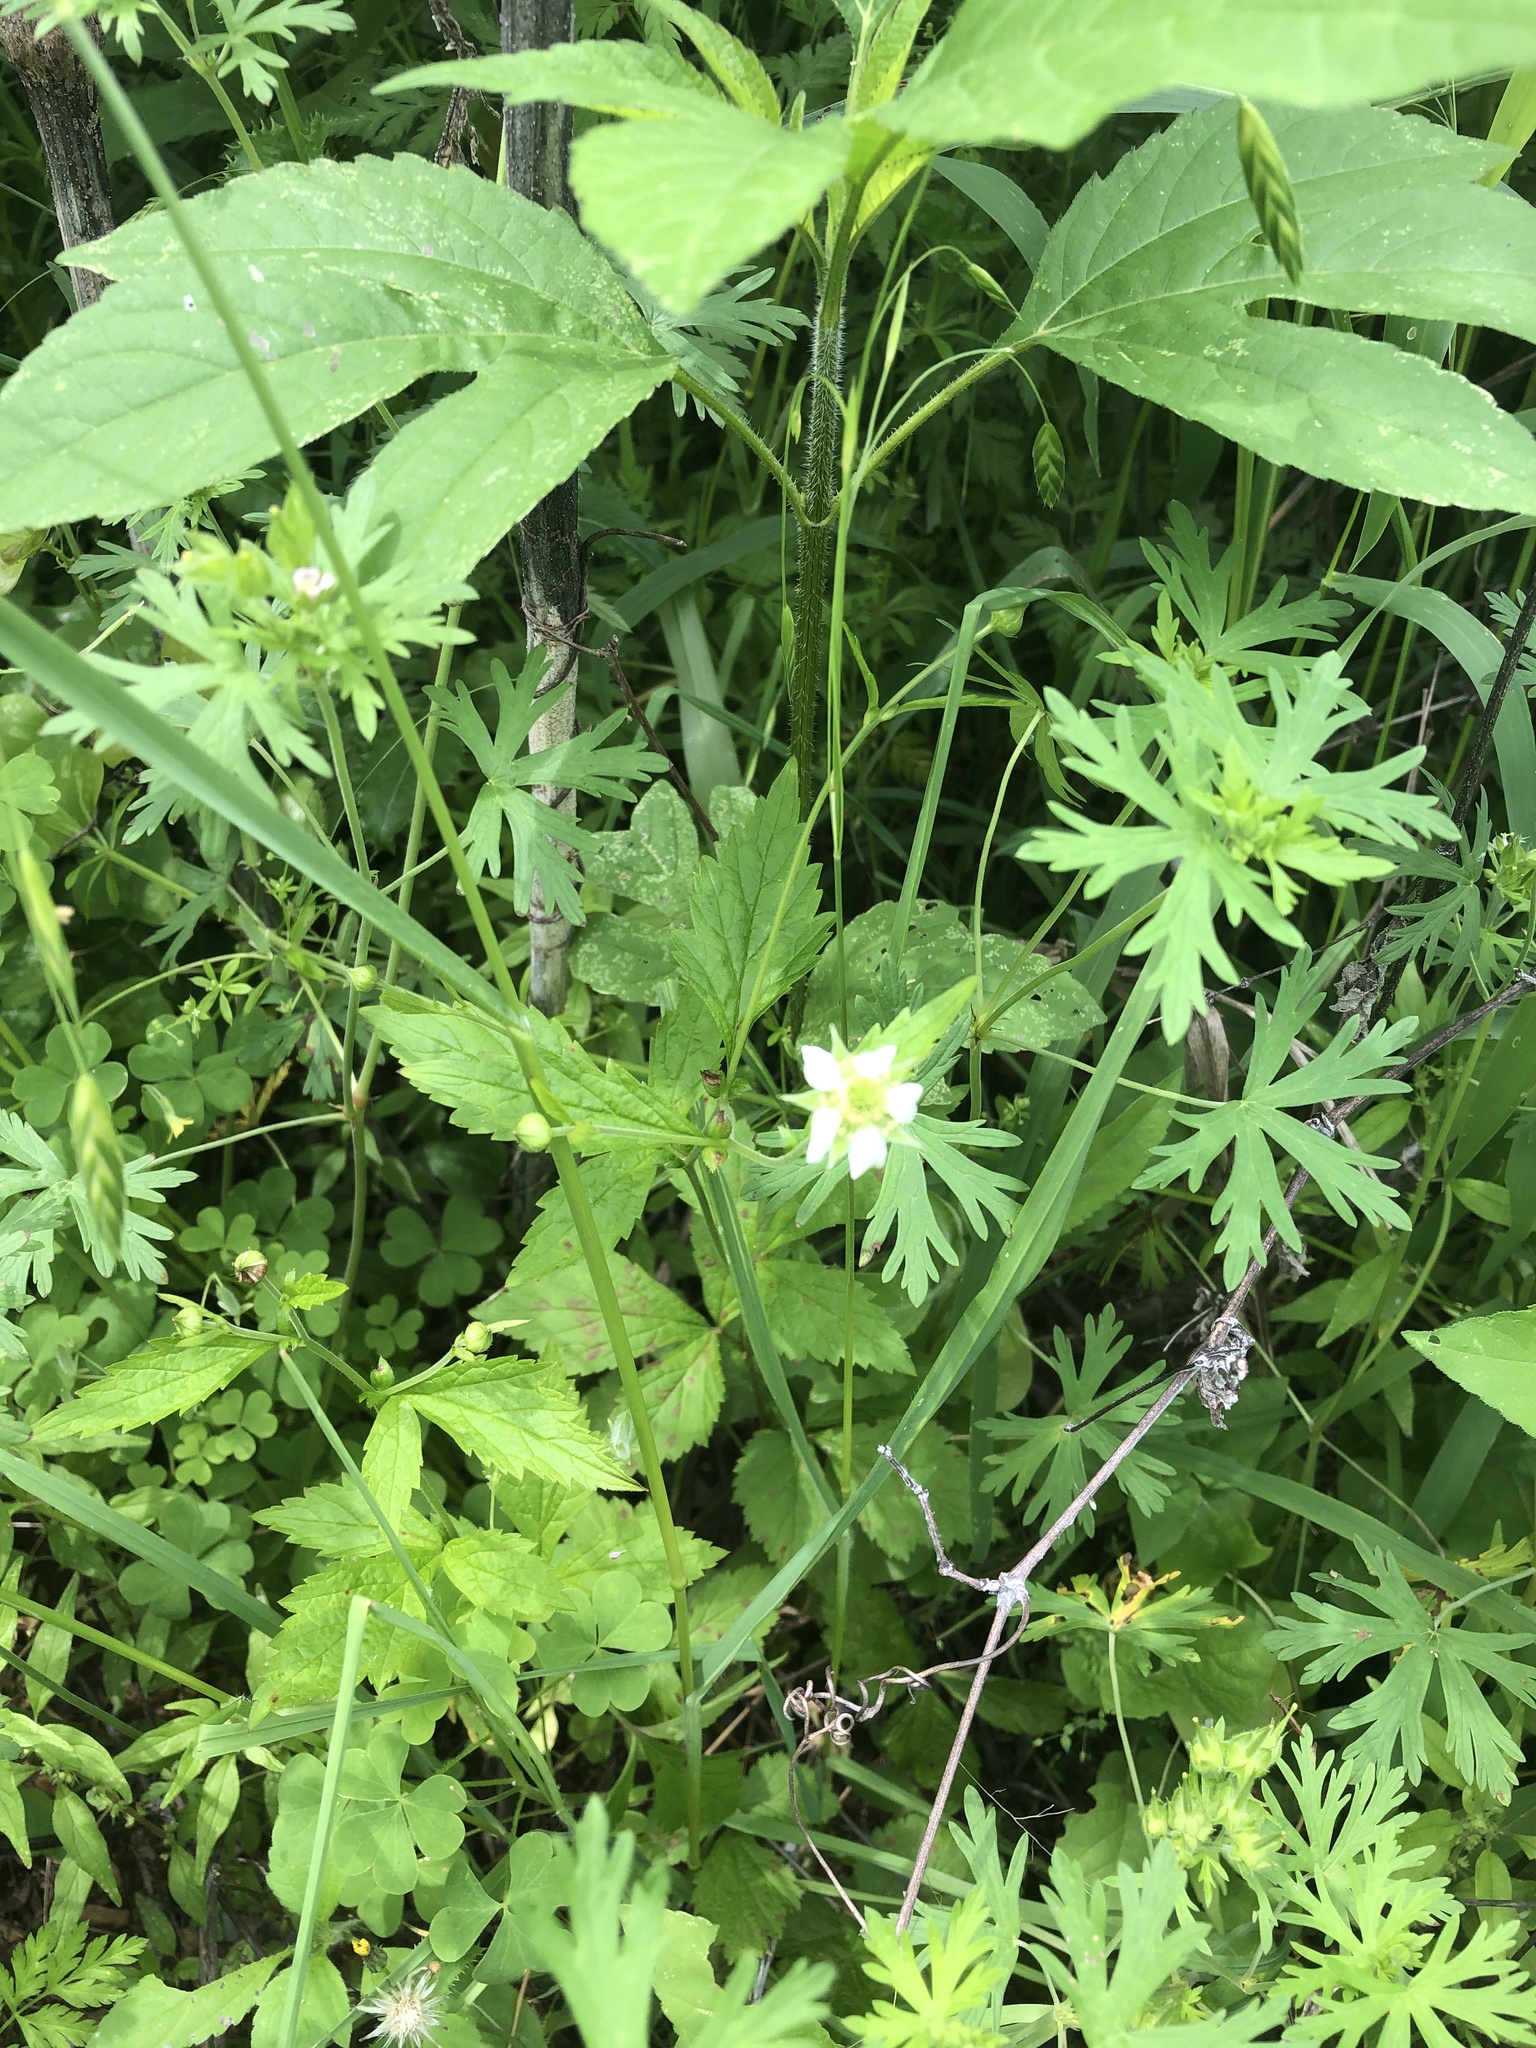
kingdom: Plantae
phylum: Tracheophyta
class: Magnoliopsida
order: Rosales
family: Rosaceae
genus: Geum
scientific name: Geum canadense
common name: White avens
